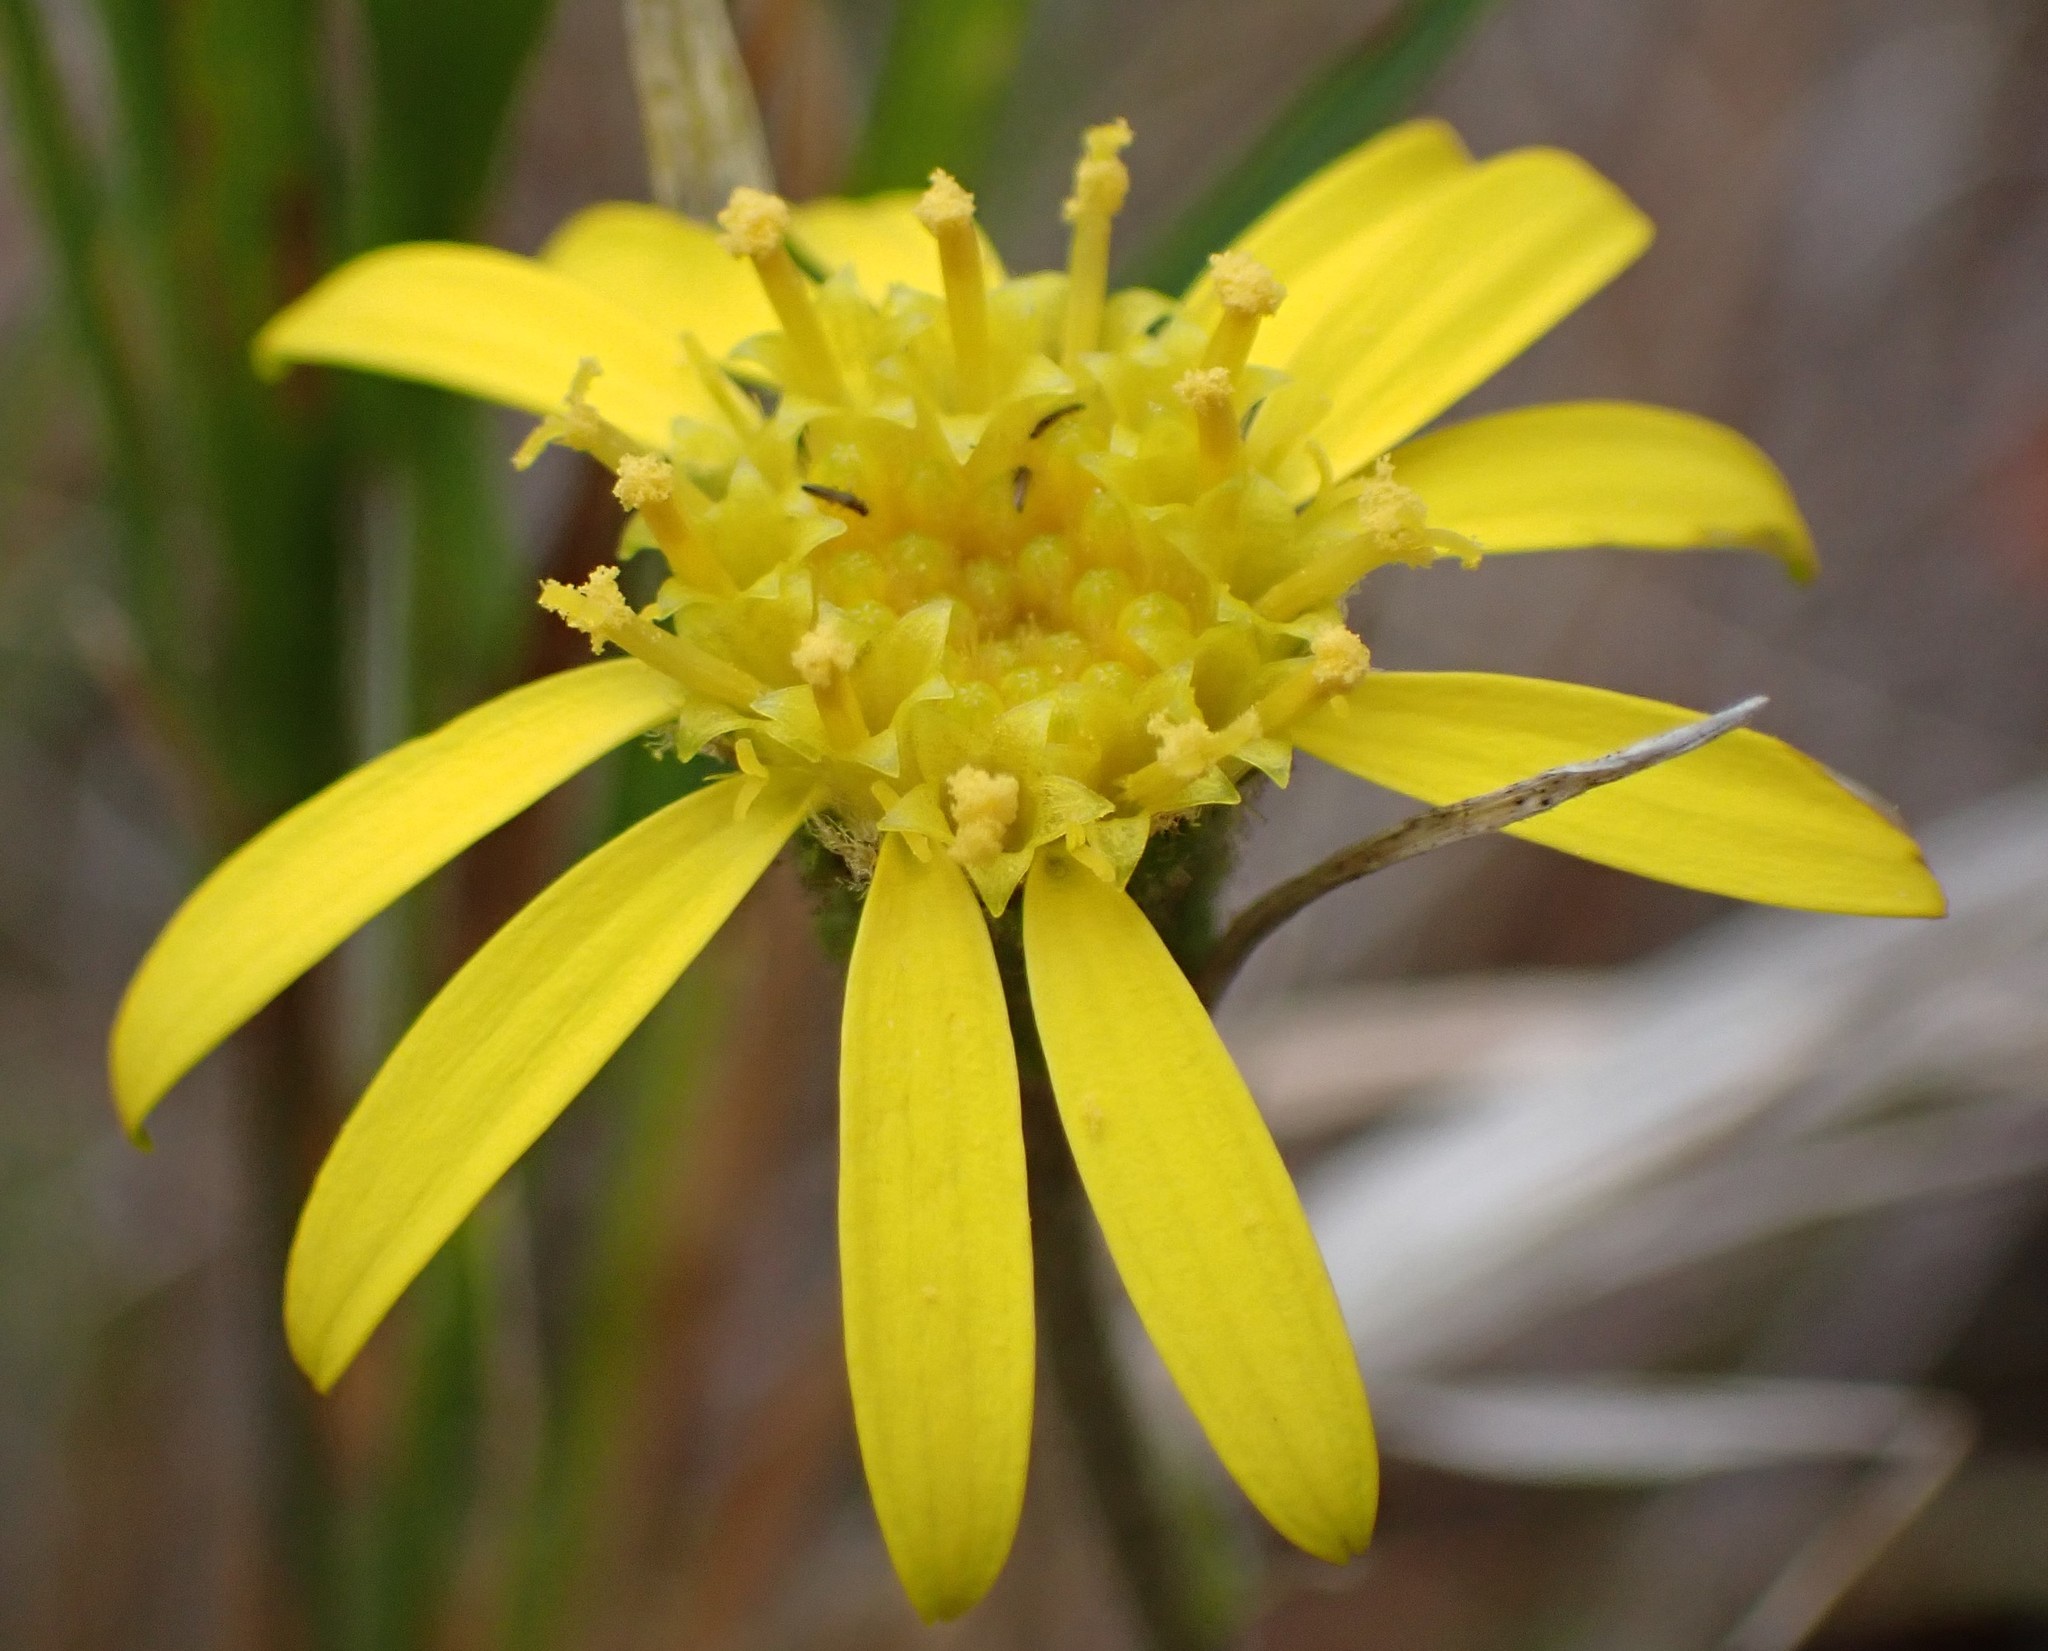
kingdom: Plantae
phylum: Tracheophyta
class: Magnoliopsida
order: Asterales
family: Asteraceae
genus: Brachyglottis
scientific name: Brachyglottis lagopus
